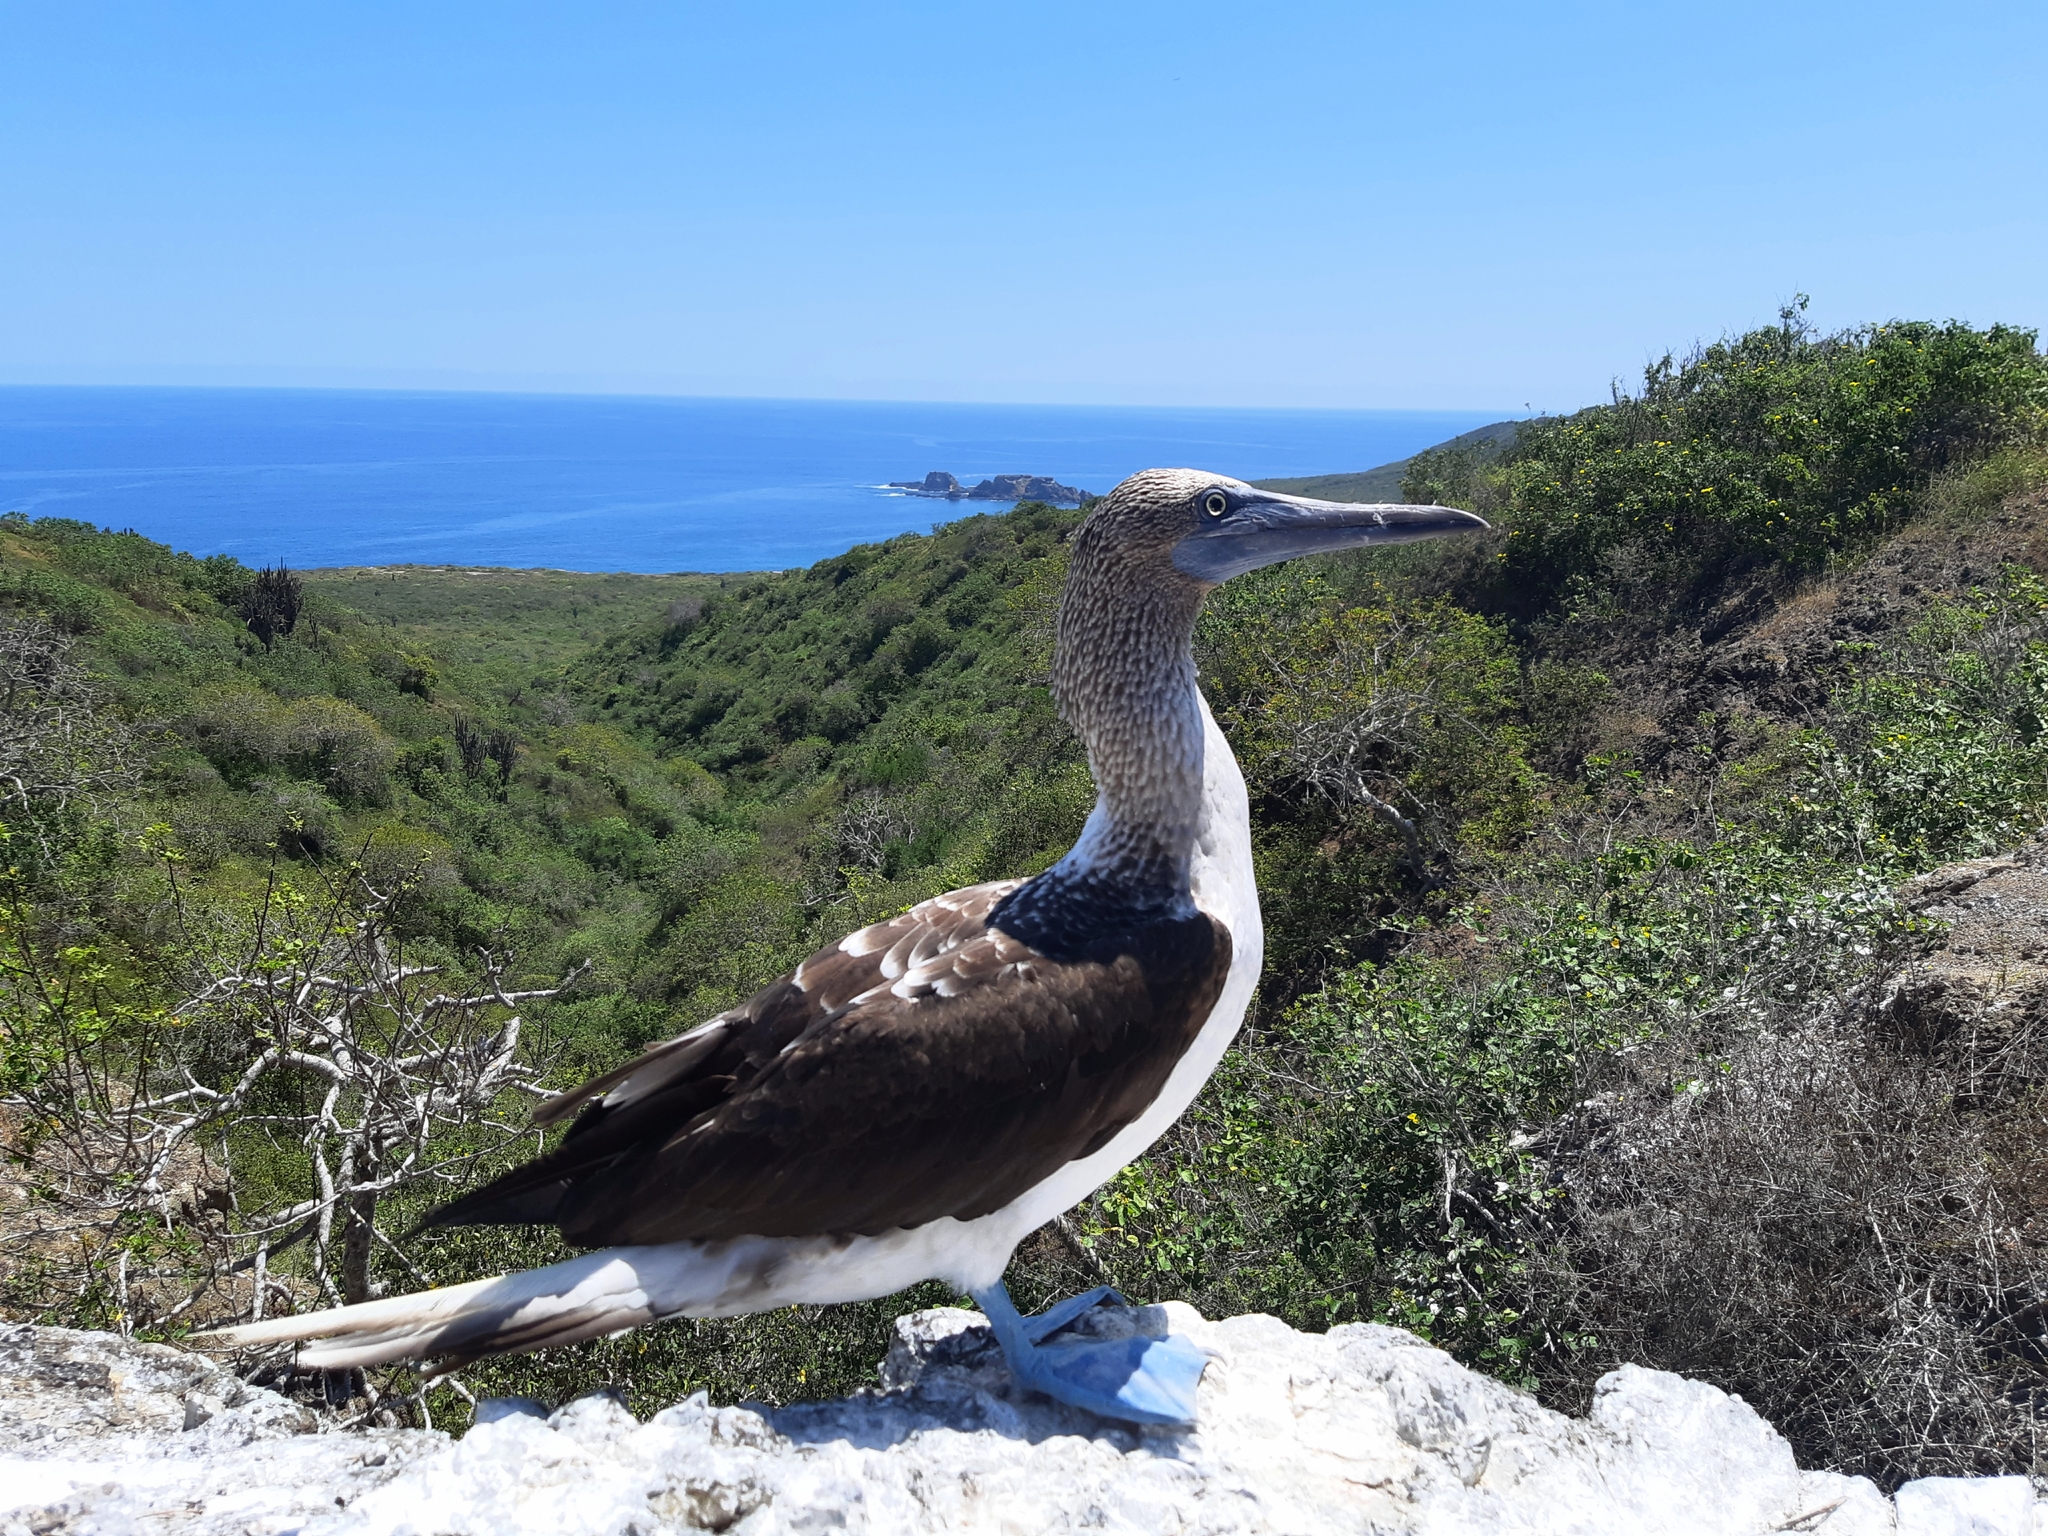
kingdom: Animalia
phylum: Chordata
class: Aves
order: Suliformes
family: Sulidae
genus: Sula
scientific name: Sula nebouxii
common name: Blue-footed booby
